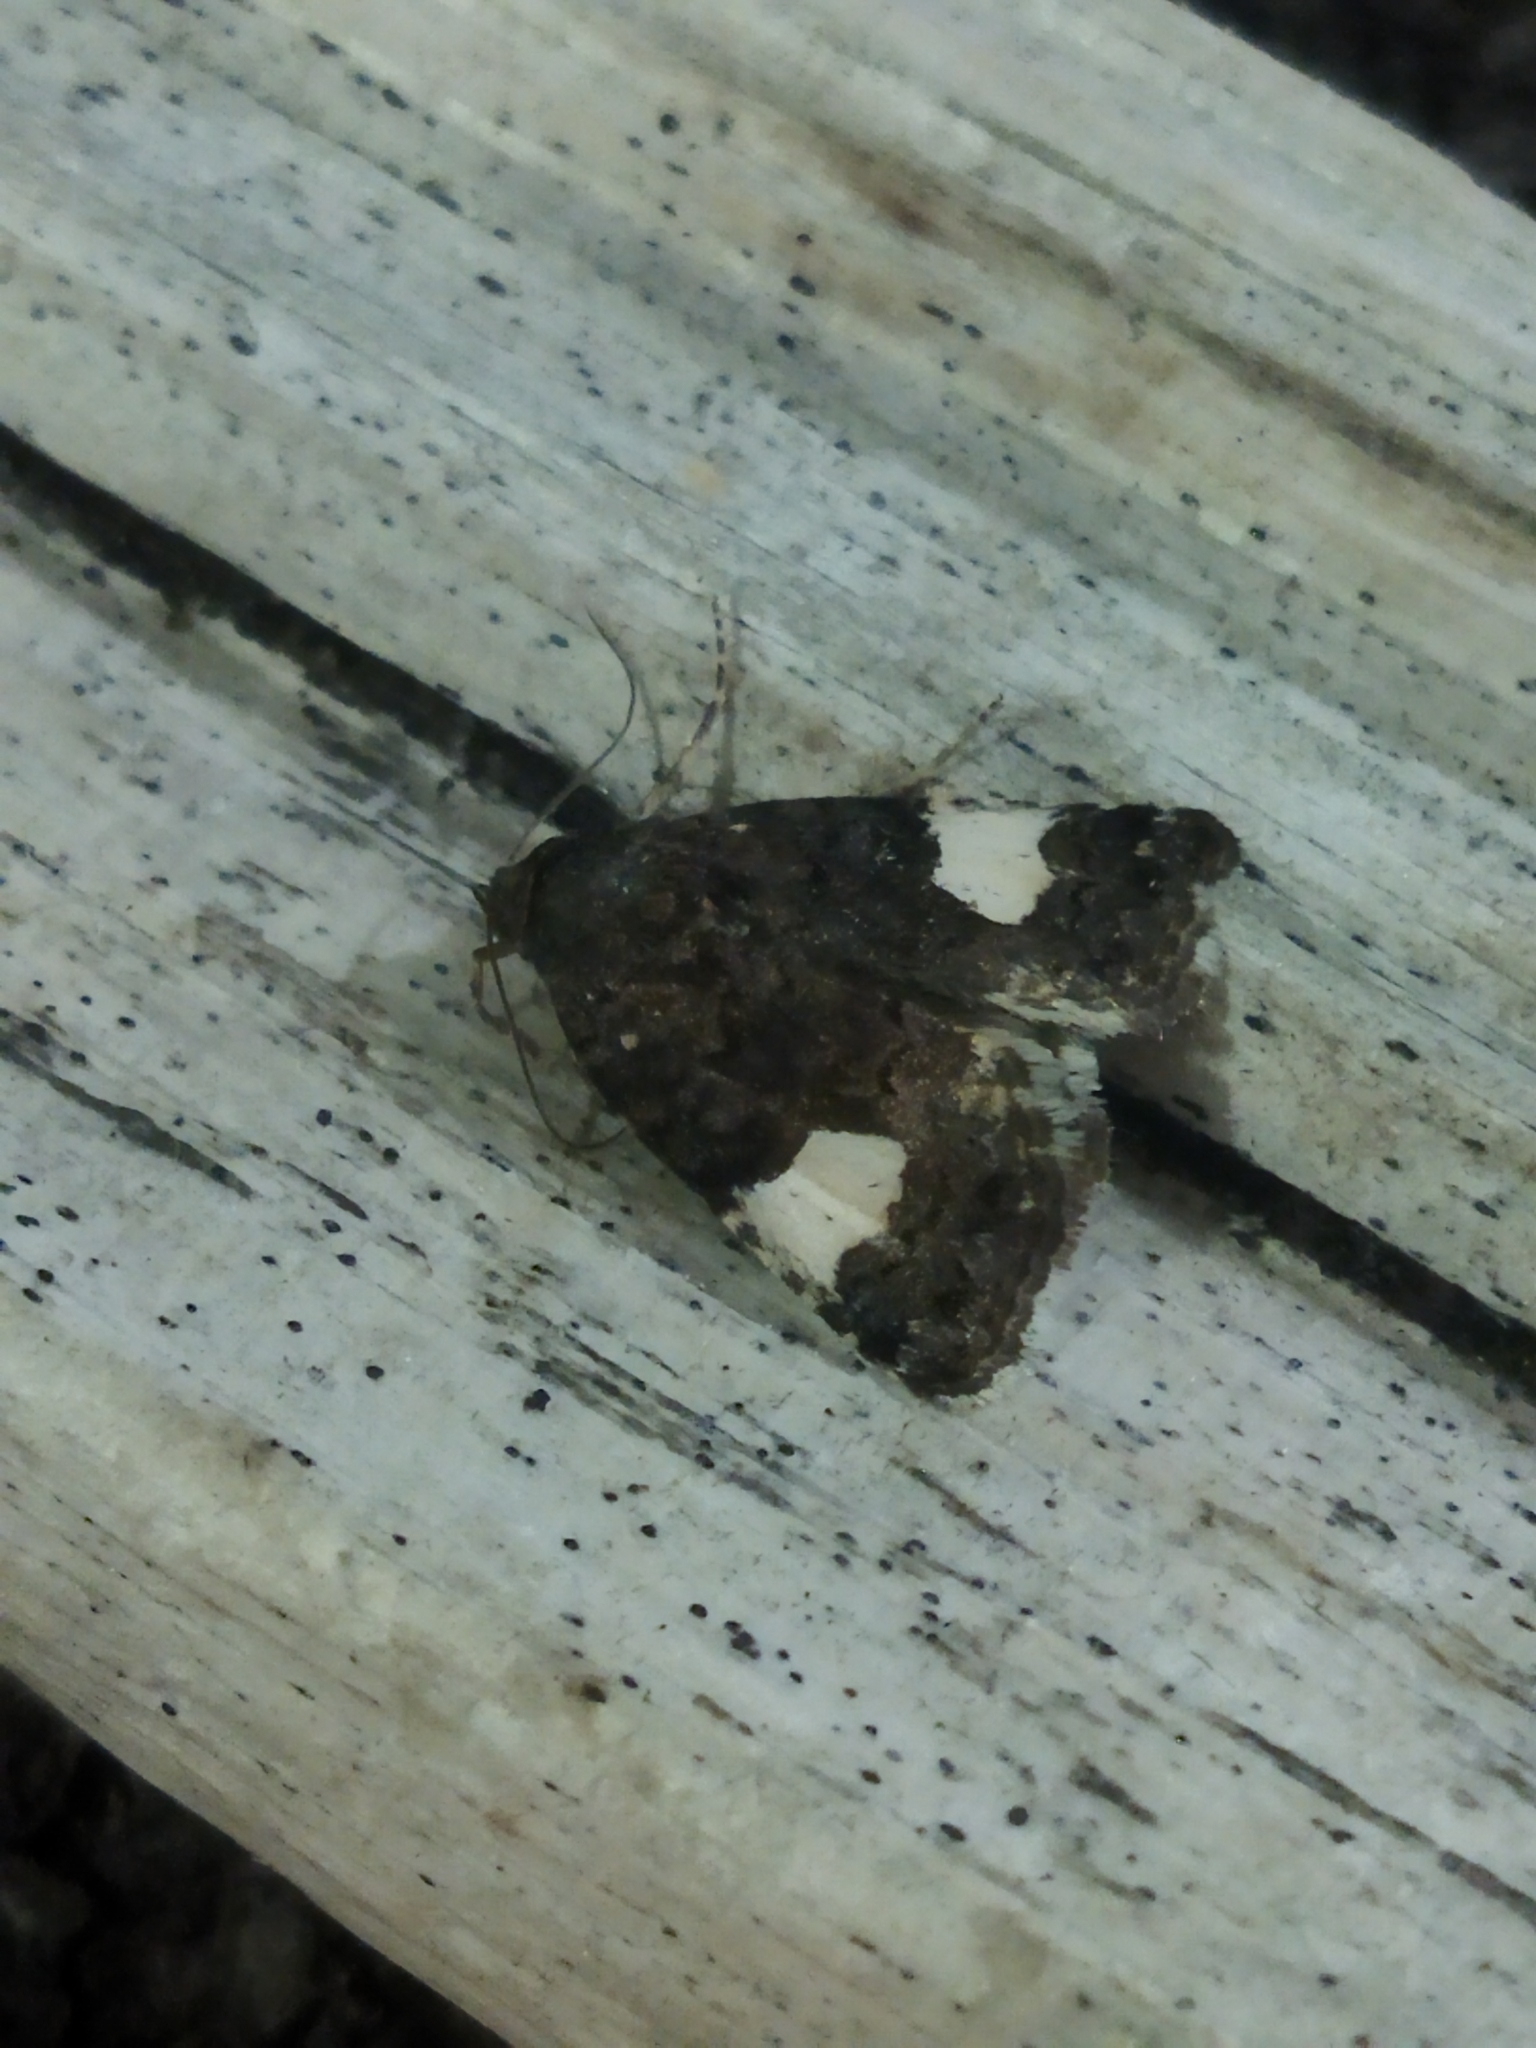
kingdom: Animalia
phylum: Arthropoda
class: Insecta
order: Lepidoptera
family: Erebidae
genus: Tyta
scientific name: Tyta luctuosa
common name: Four-spotted
